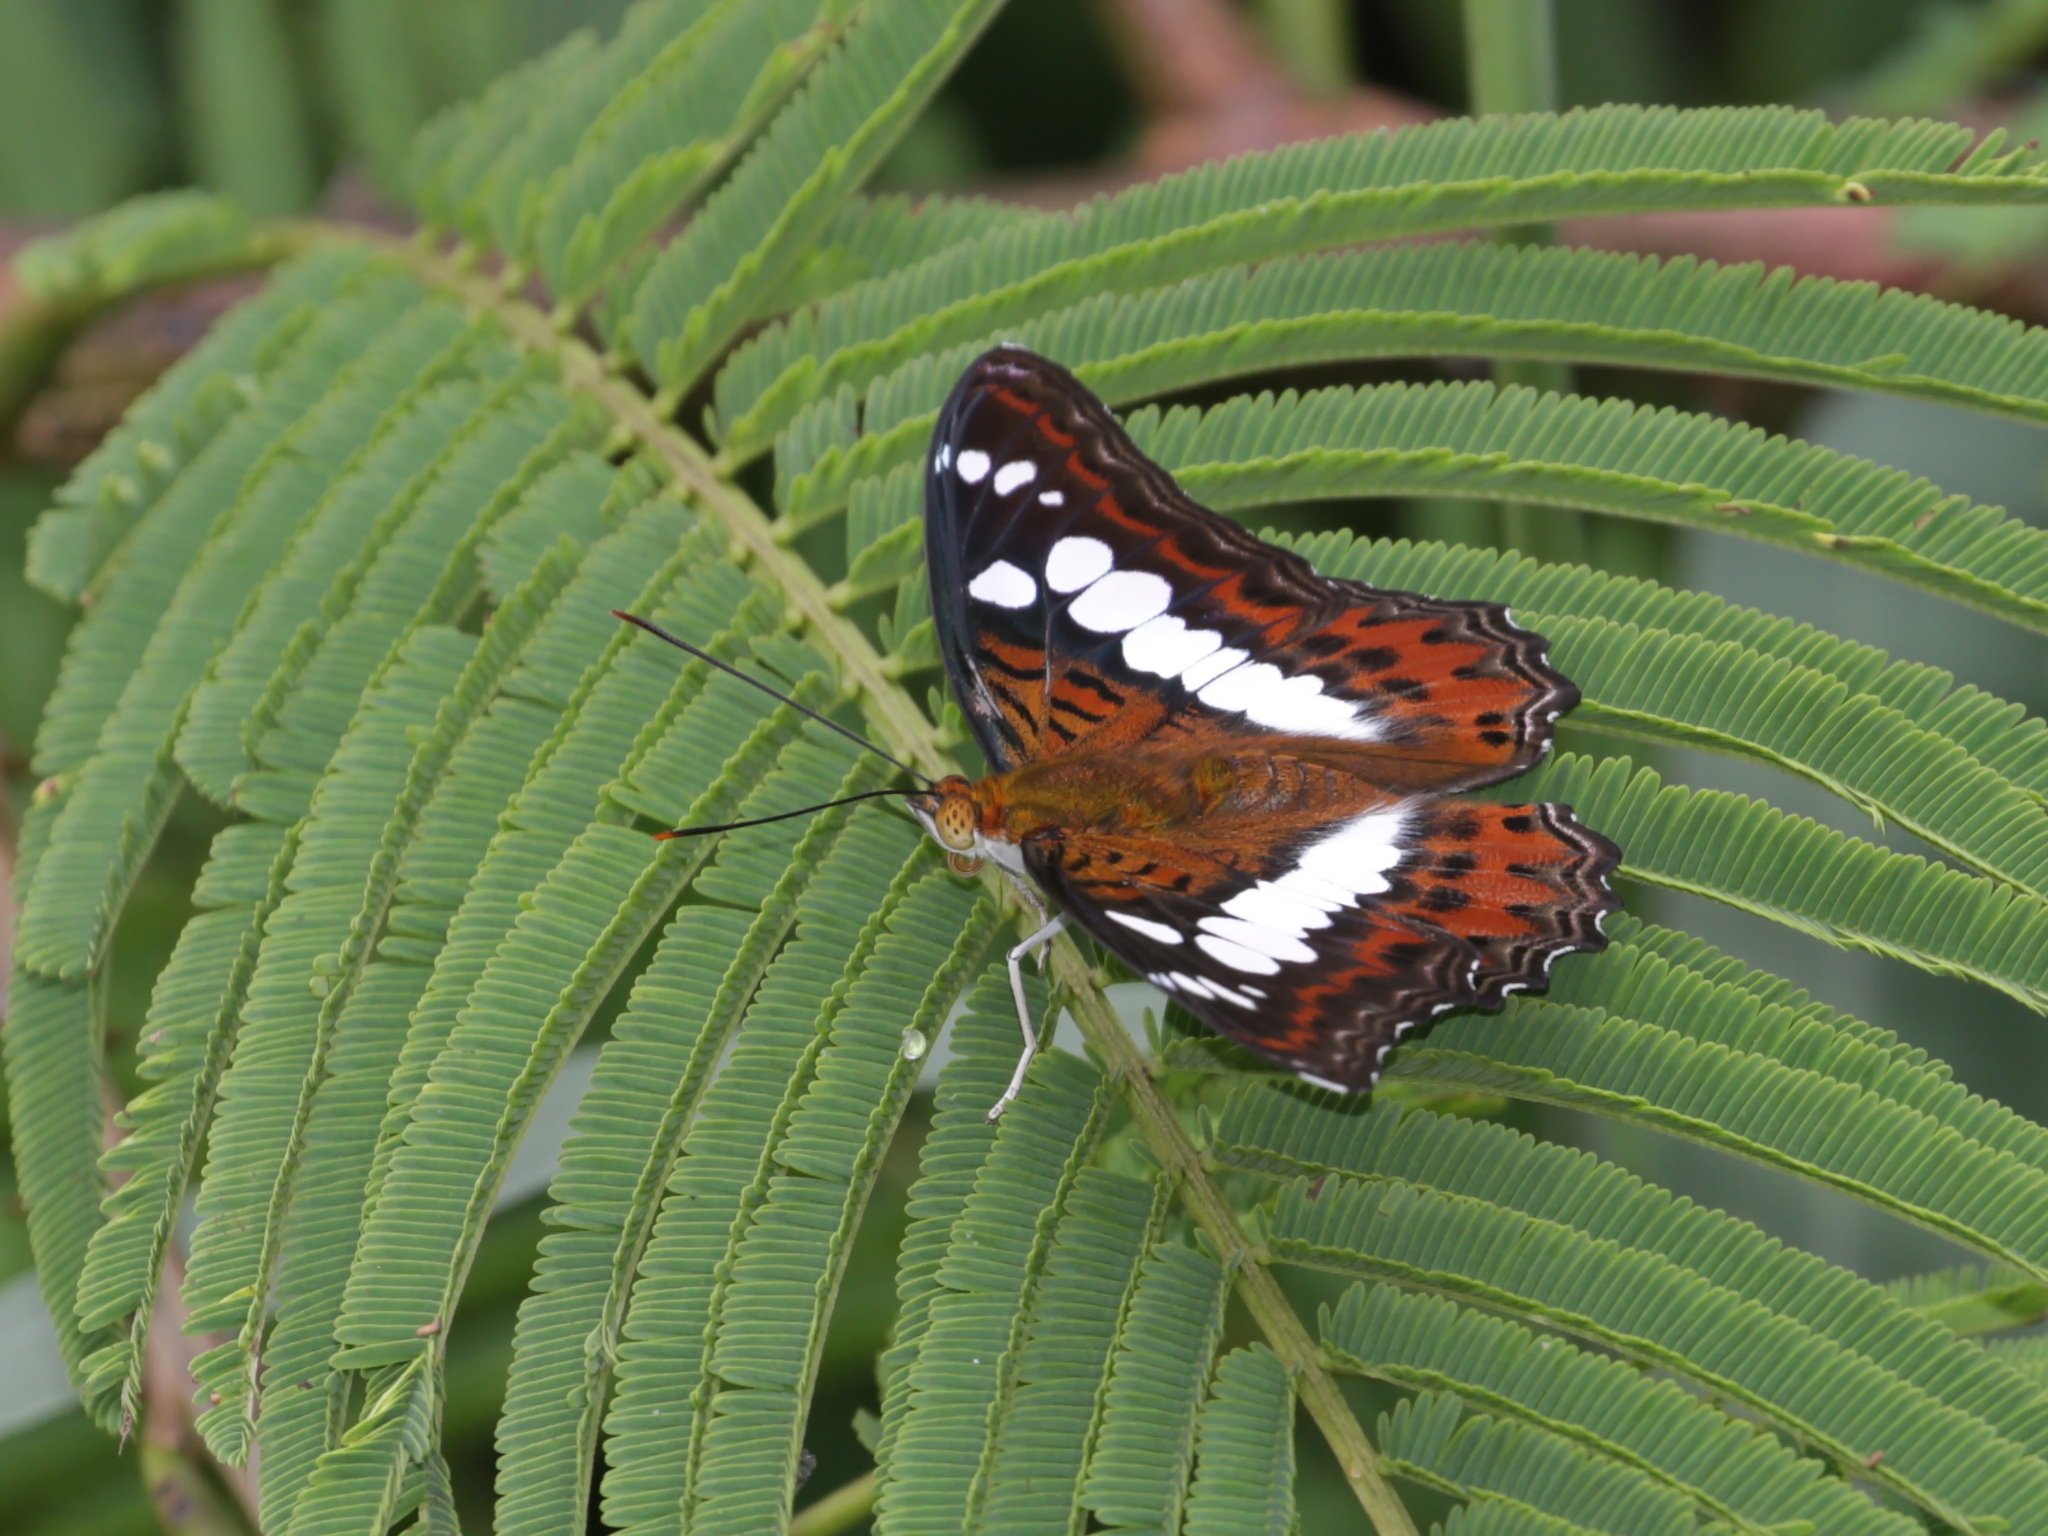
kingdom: Animalia
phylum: Arthropoda
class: Insecta
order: Lepidoptera
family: Nymphalidae
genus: Limenitis
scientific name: Limenitis Moduza procris
